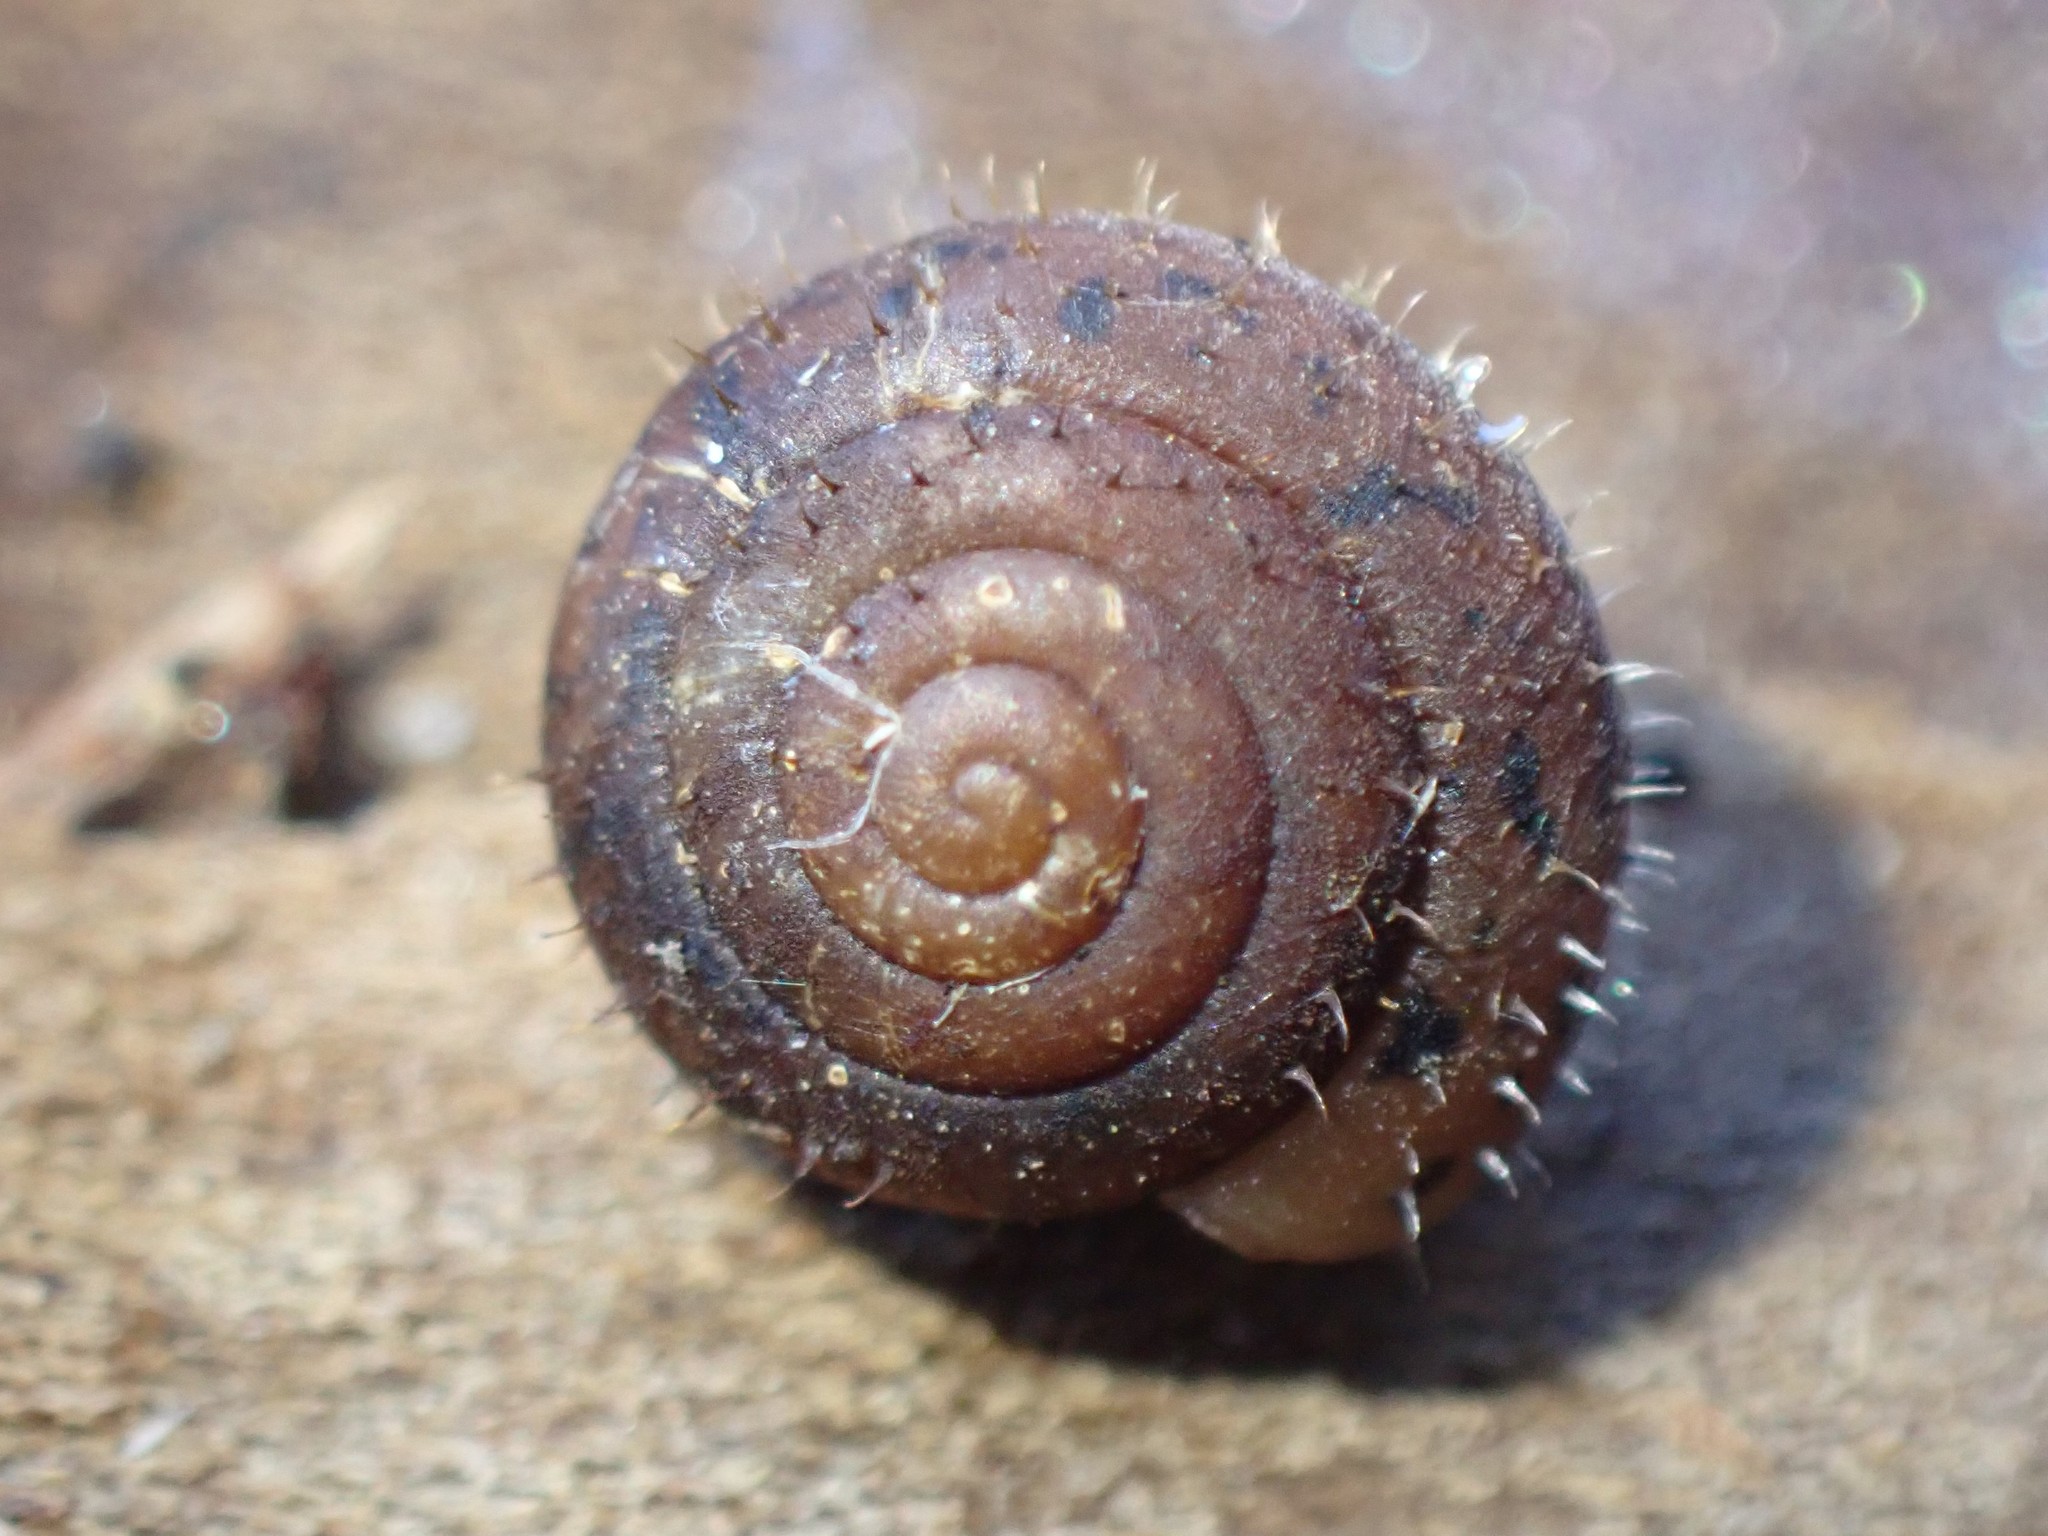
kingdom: Animalia
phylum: Mollusca
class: Gastropoda
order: Stylommatophora
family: Polygyridae
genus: Cryptomastix
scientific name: Cryptomastix germana
